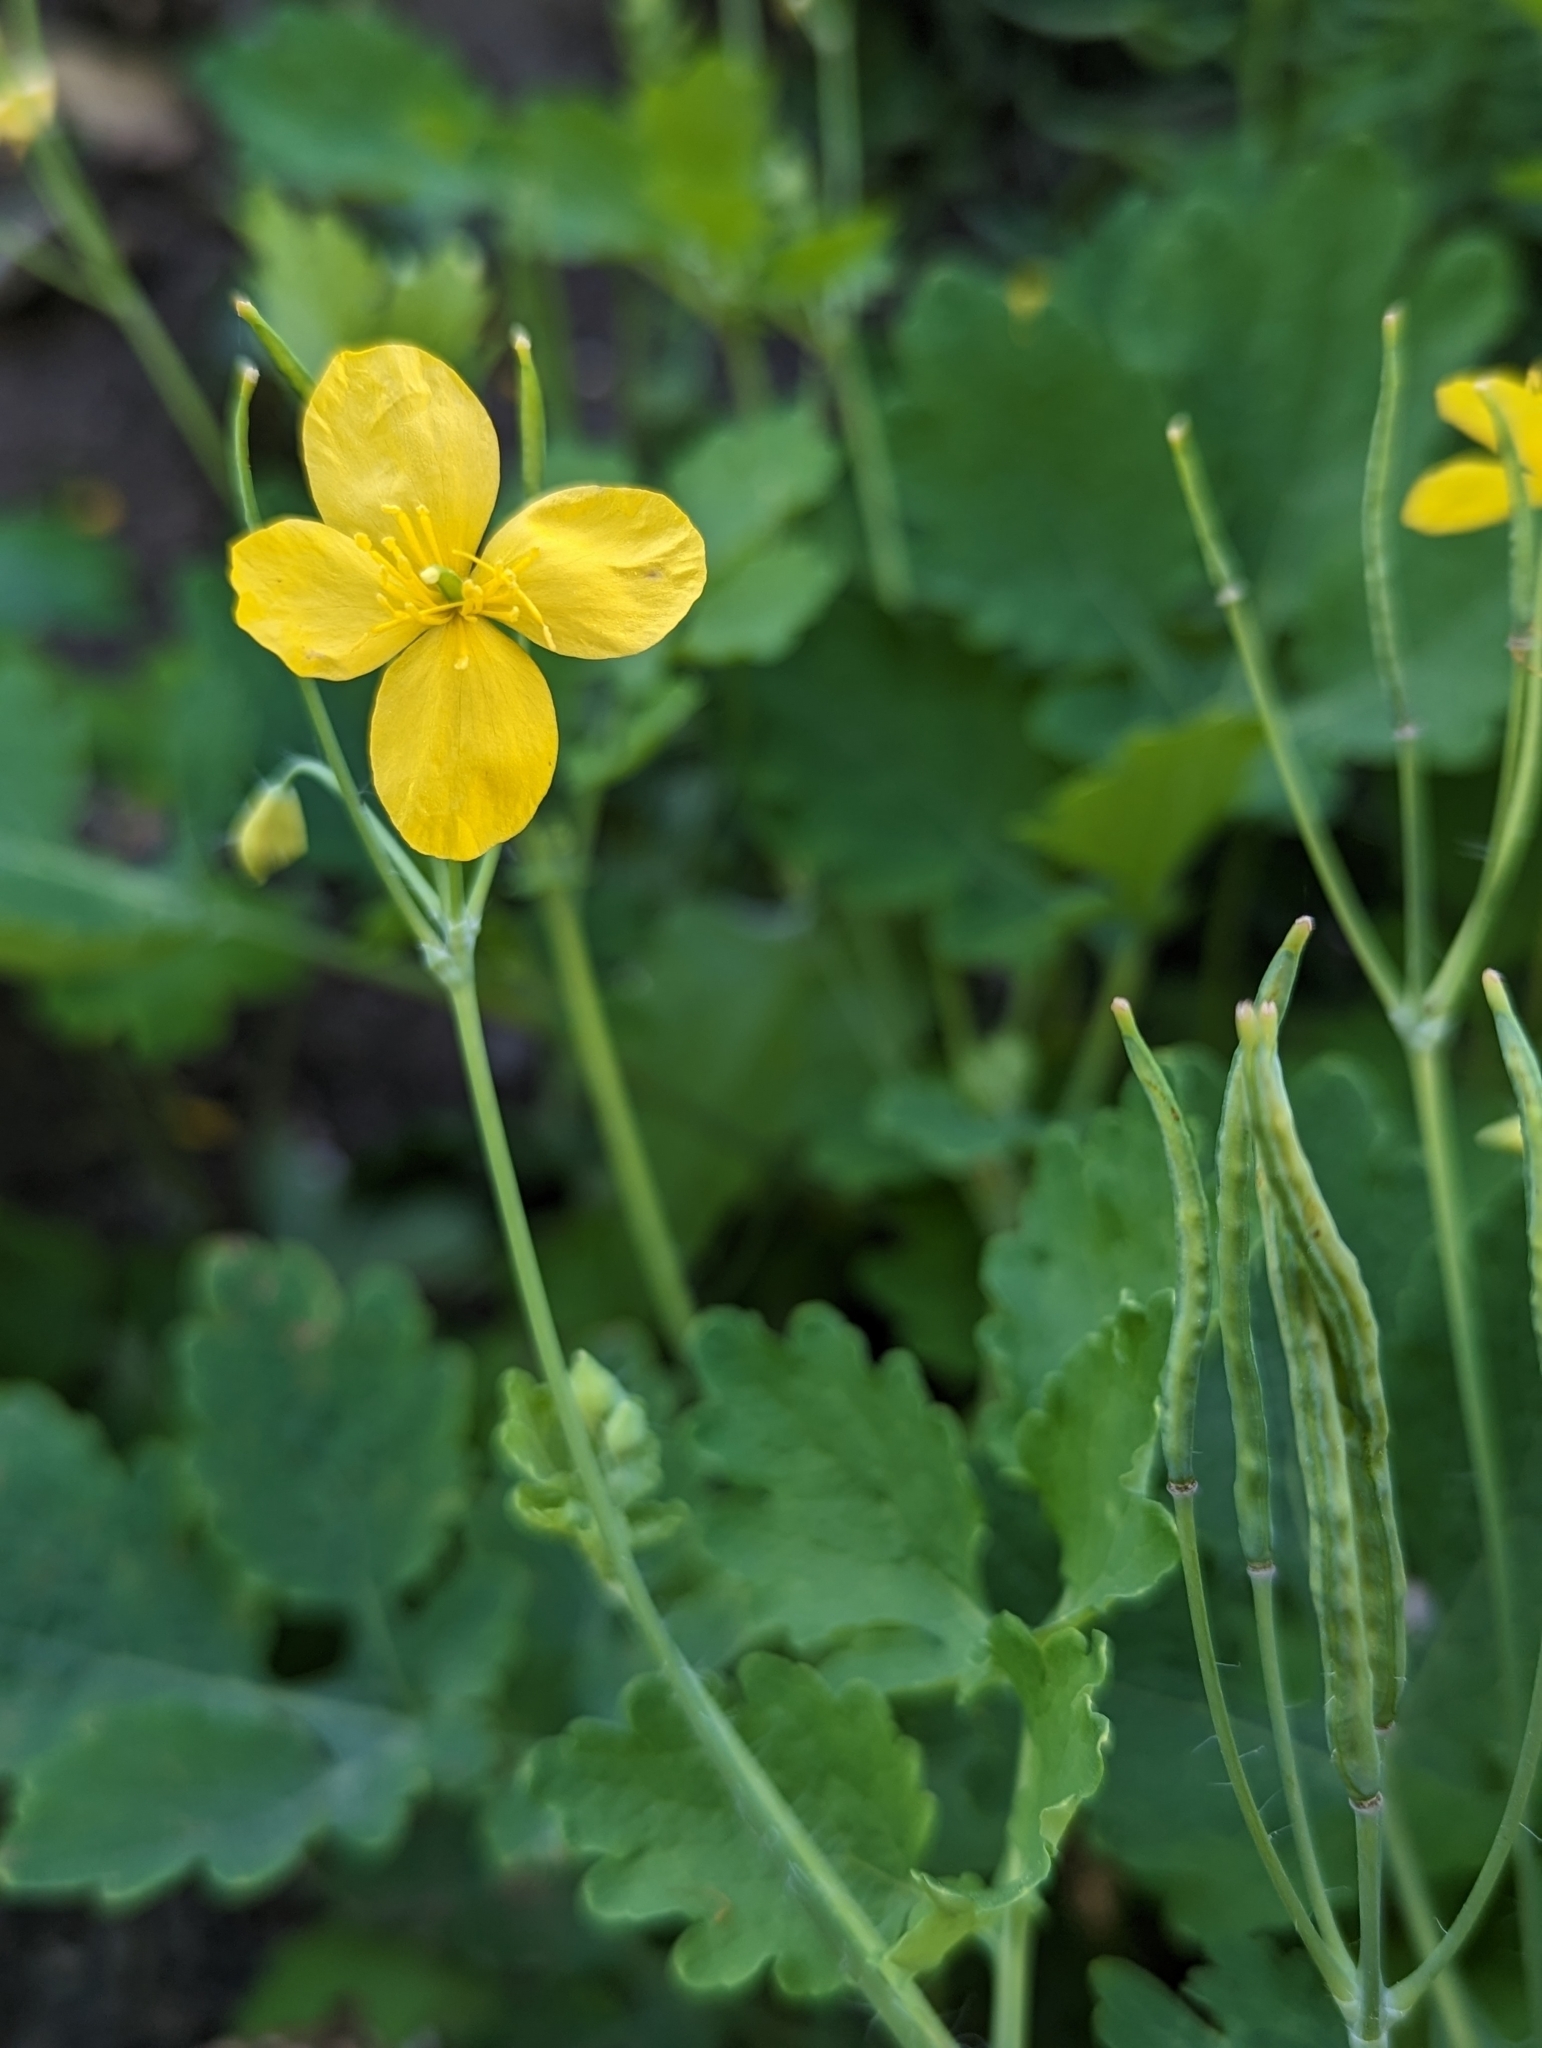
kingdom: Plantae
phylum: Tracheophyta
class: Magnoliopsida
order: Ranunculales
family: Papaveraceae
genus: Chelidonium
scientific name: Chelidonium majus
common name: Greater celandine
